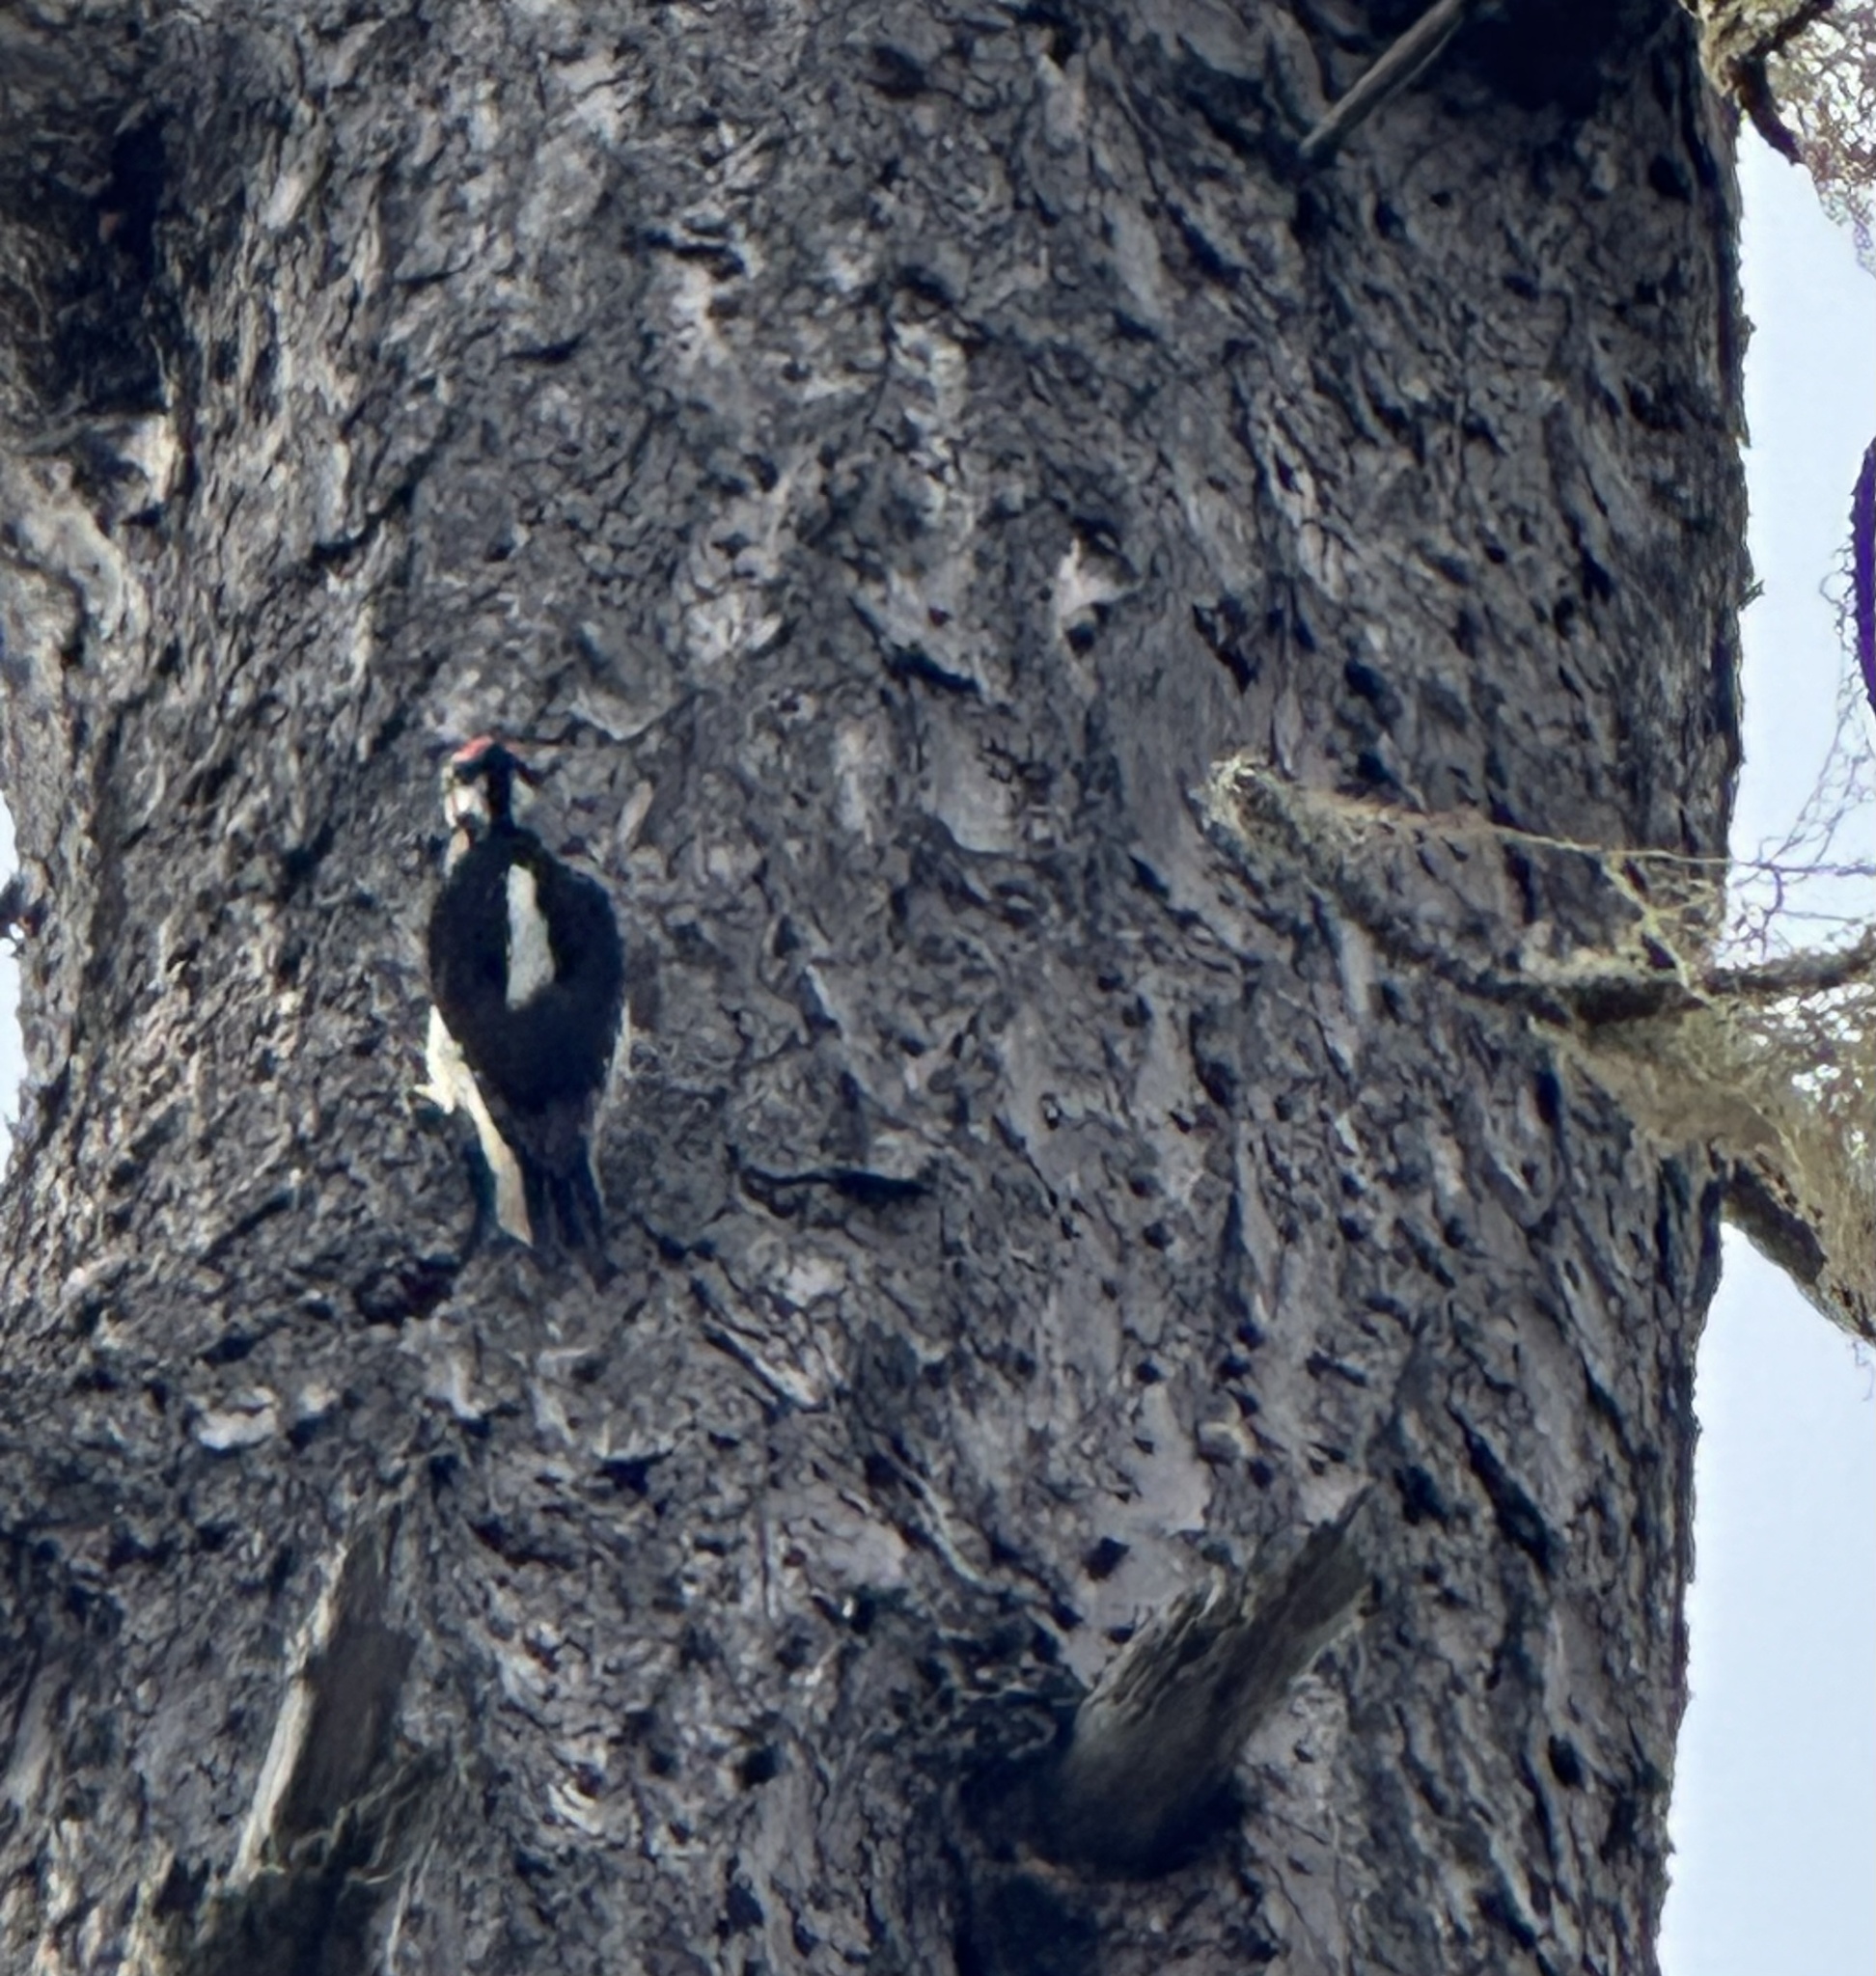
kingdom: Animalia
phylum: Chordata
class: Aves
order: Piciformes
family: Picidae
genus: Leuconotopicus
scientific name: Leuconotopicus villosus
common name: Hairy woodpecker
